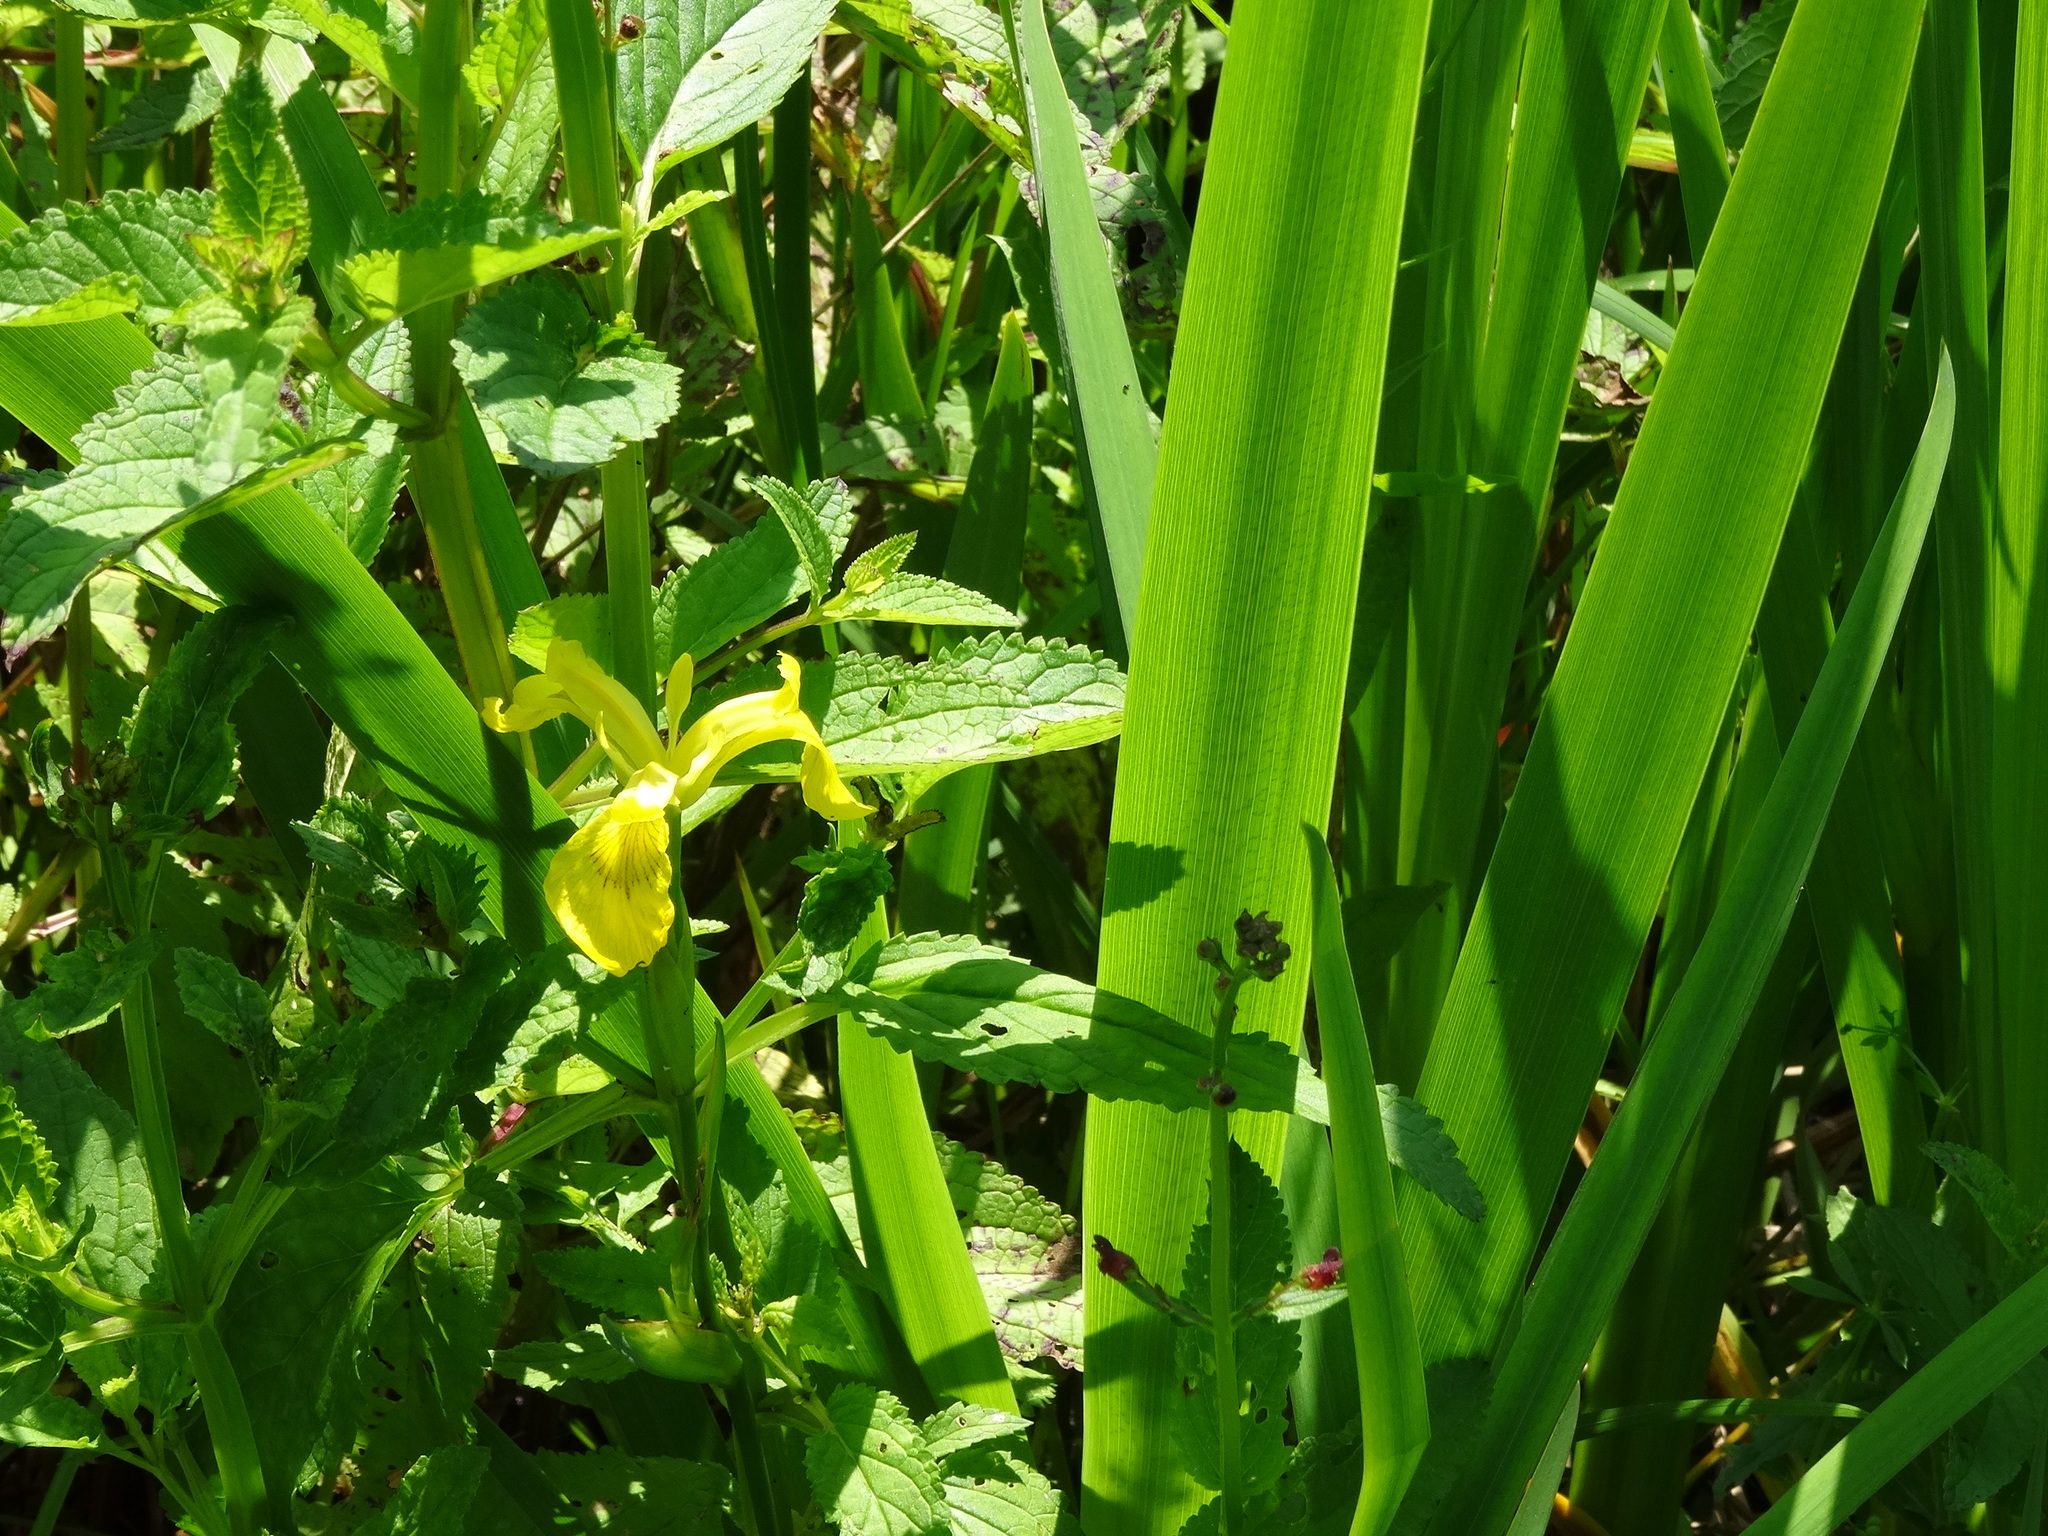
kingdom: Plantae
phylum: Tracheophyta
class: Liliopsida
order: Asparagales
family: Iridaceae
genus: Iris
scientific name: Iris pseudacorus
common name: Yellow flag
